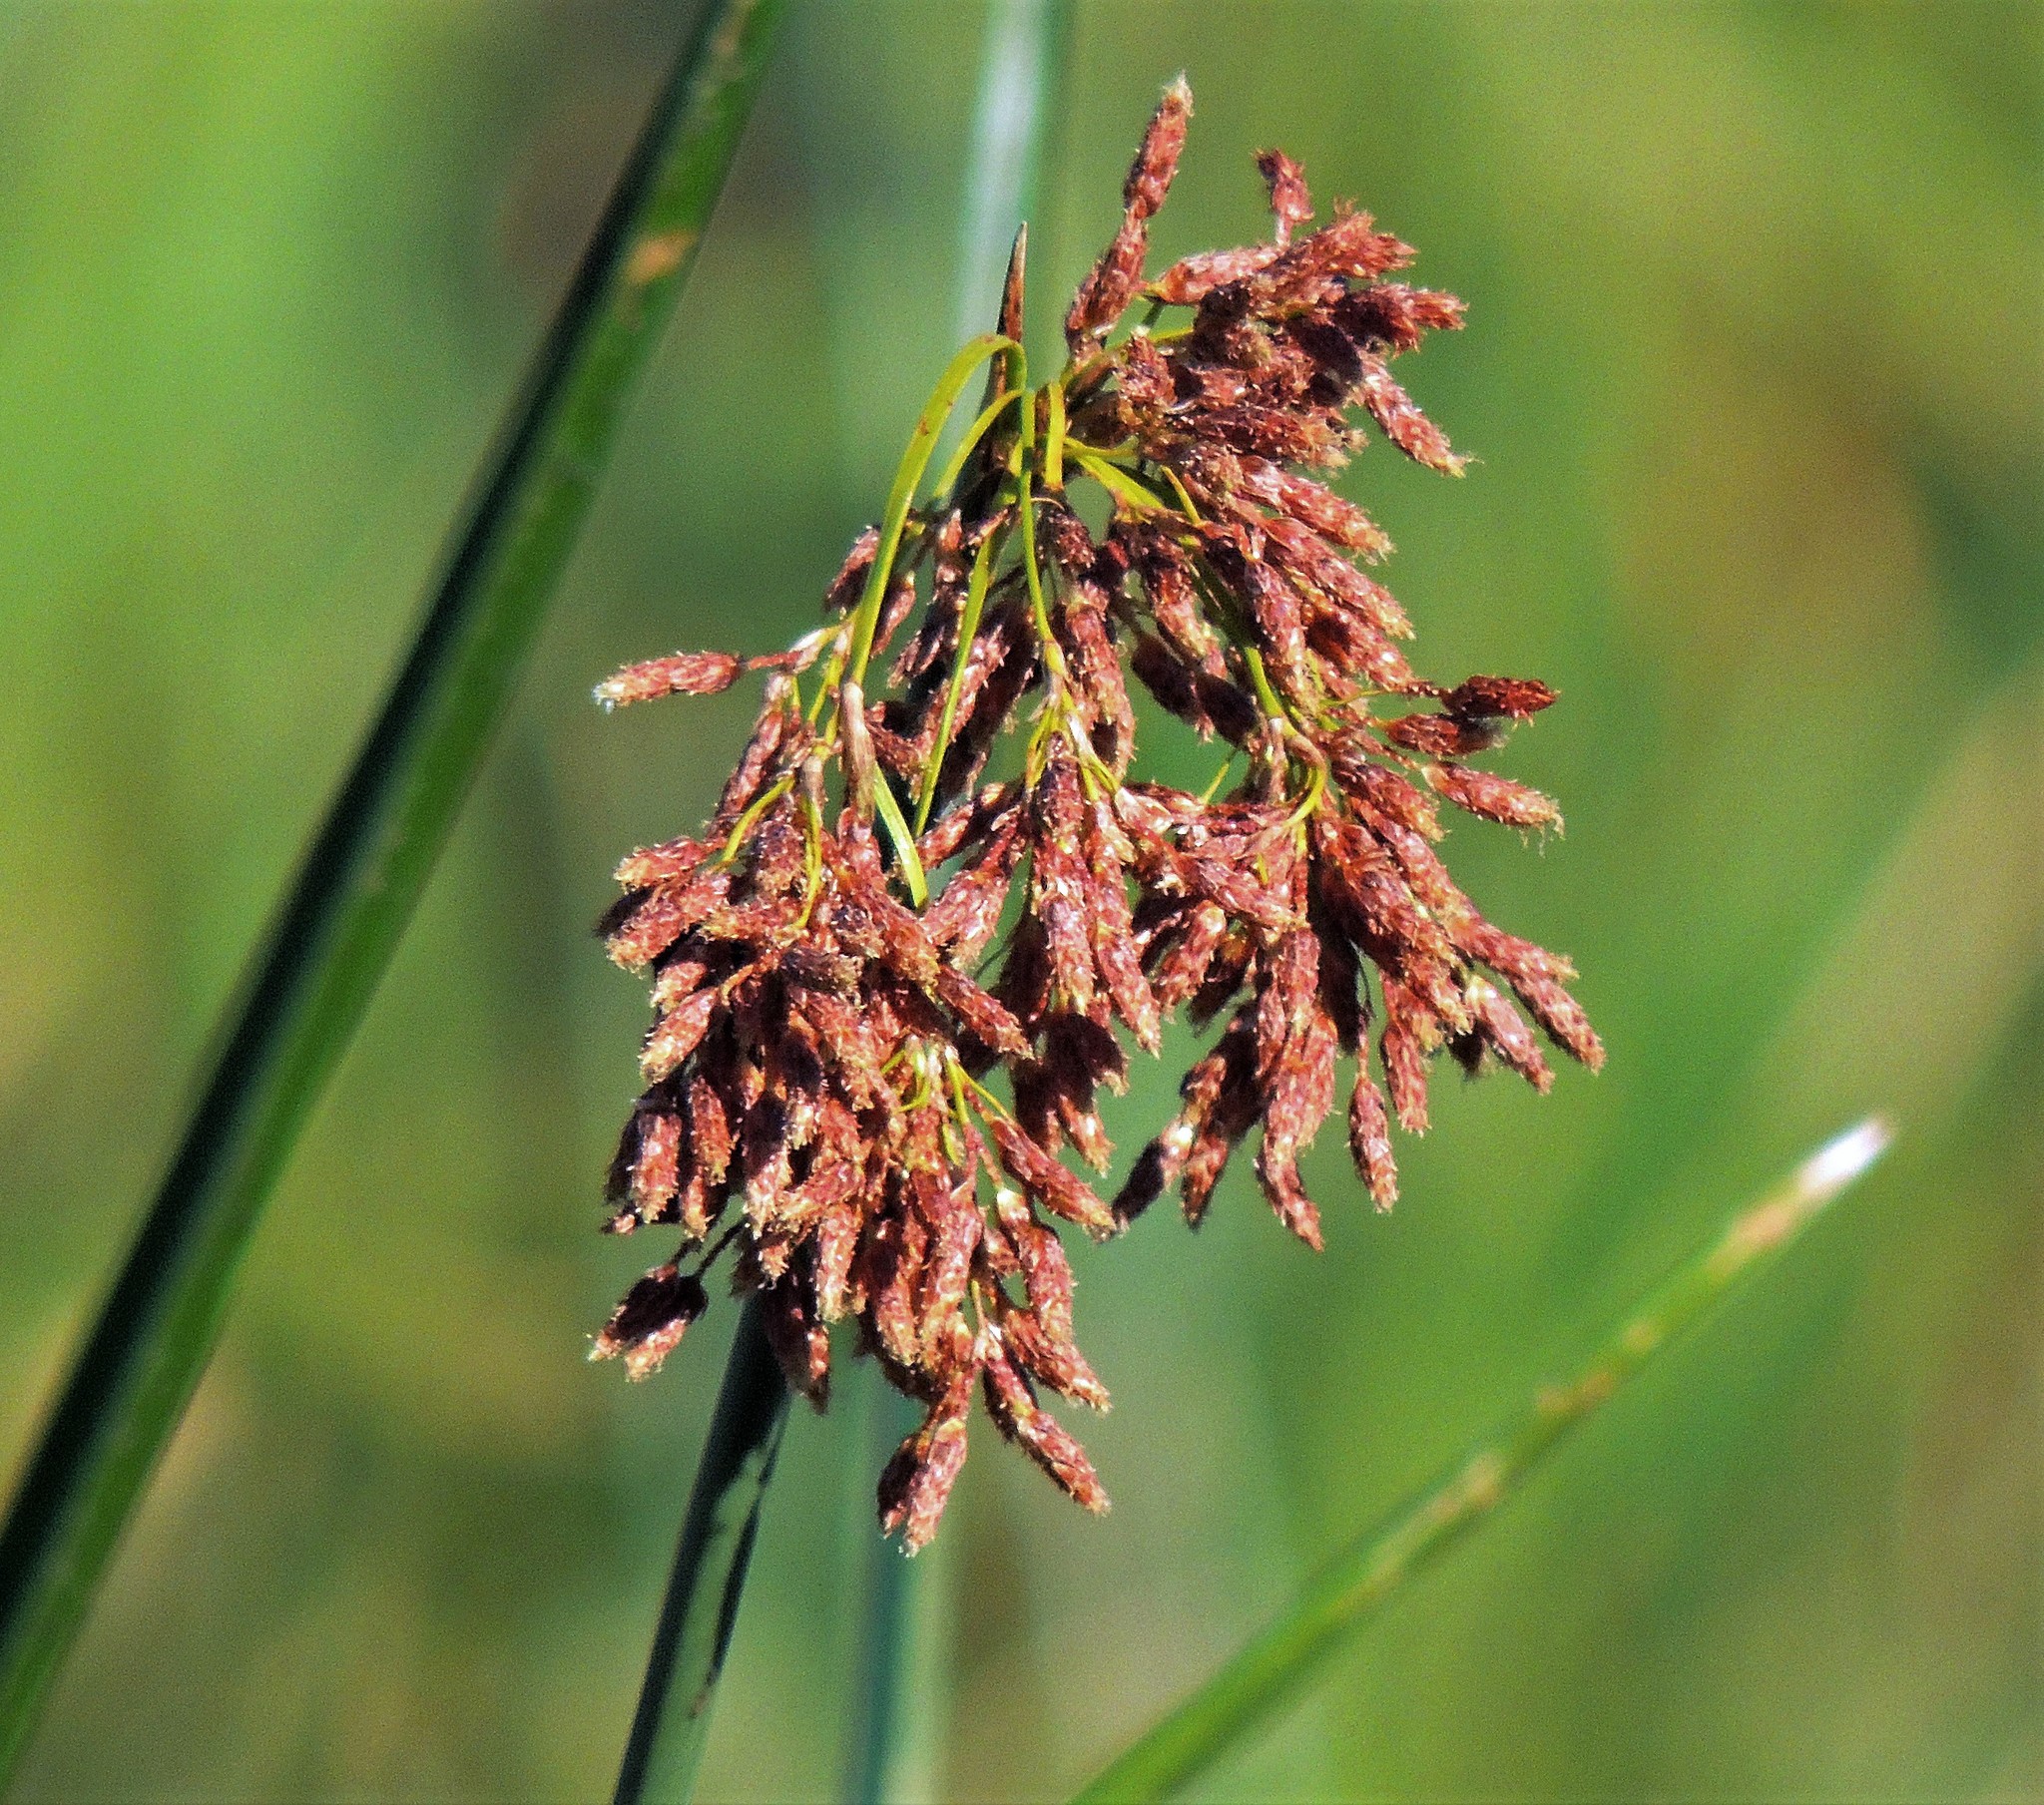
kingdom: Plantae
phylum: Tracheophyta
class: Liliopsida
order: Poales
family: Cyperaceae
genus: Schoenoplectus
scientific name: Schoenoplectus californicus
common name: California bulrush
